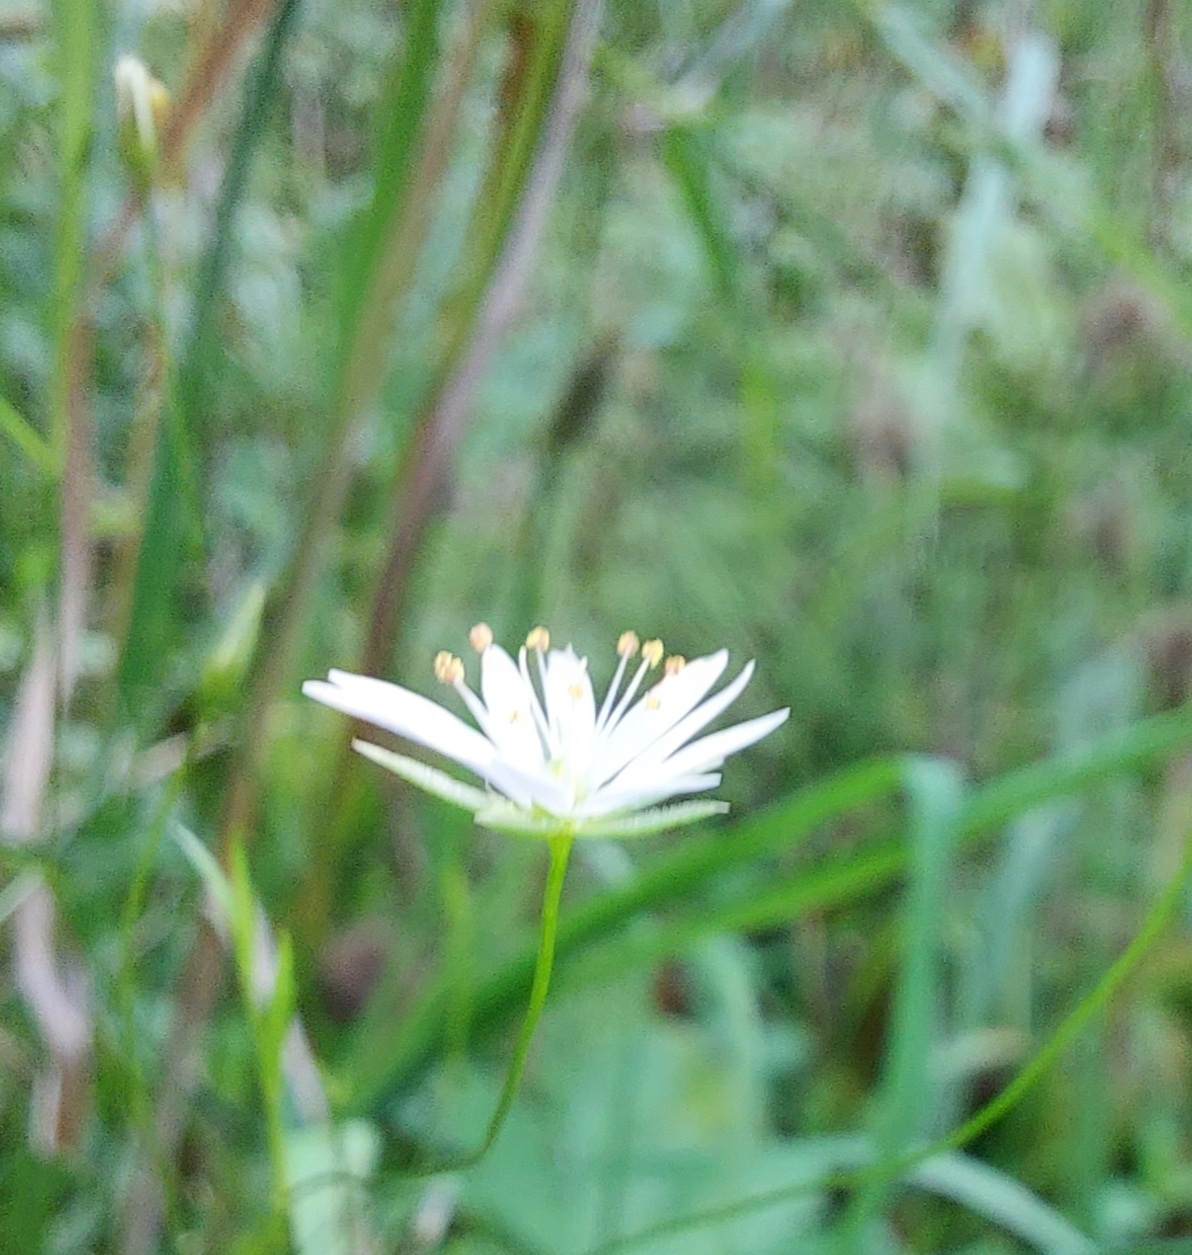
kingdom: Plantae
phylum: Tracheophyta
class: Magnoliopsida
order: Caryophyllales
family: Caryophyllaceae
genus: Stellaria
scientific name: Stellaria graminea
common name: Grass-like starwort
